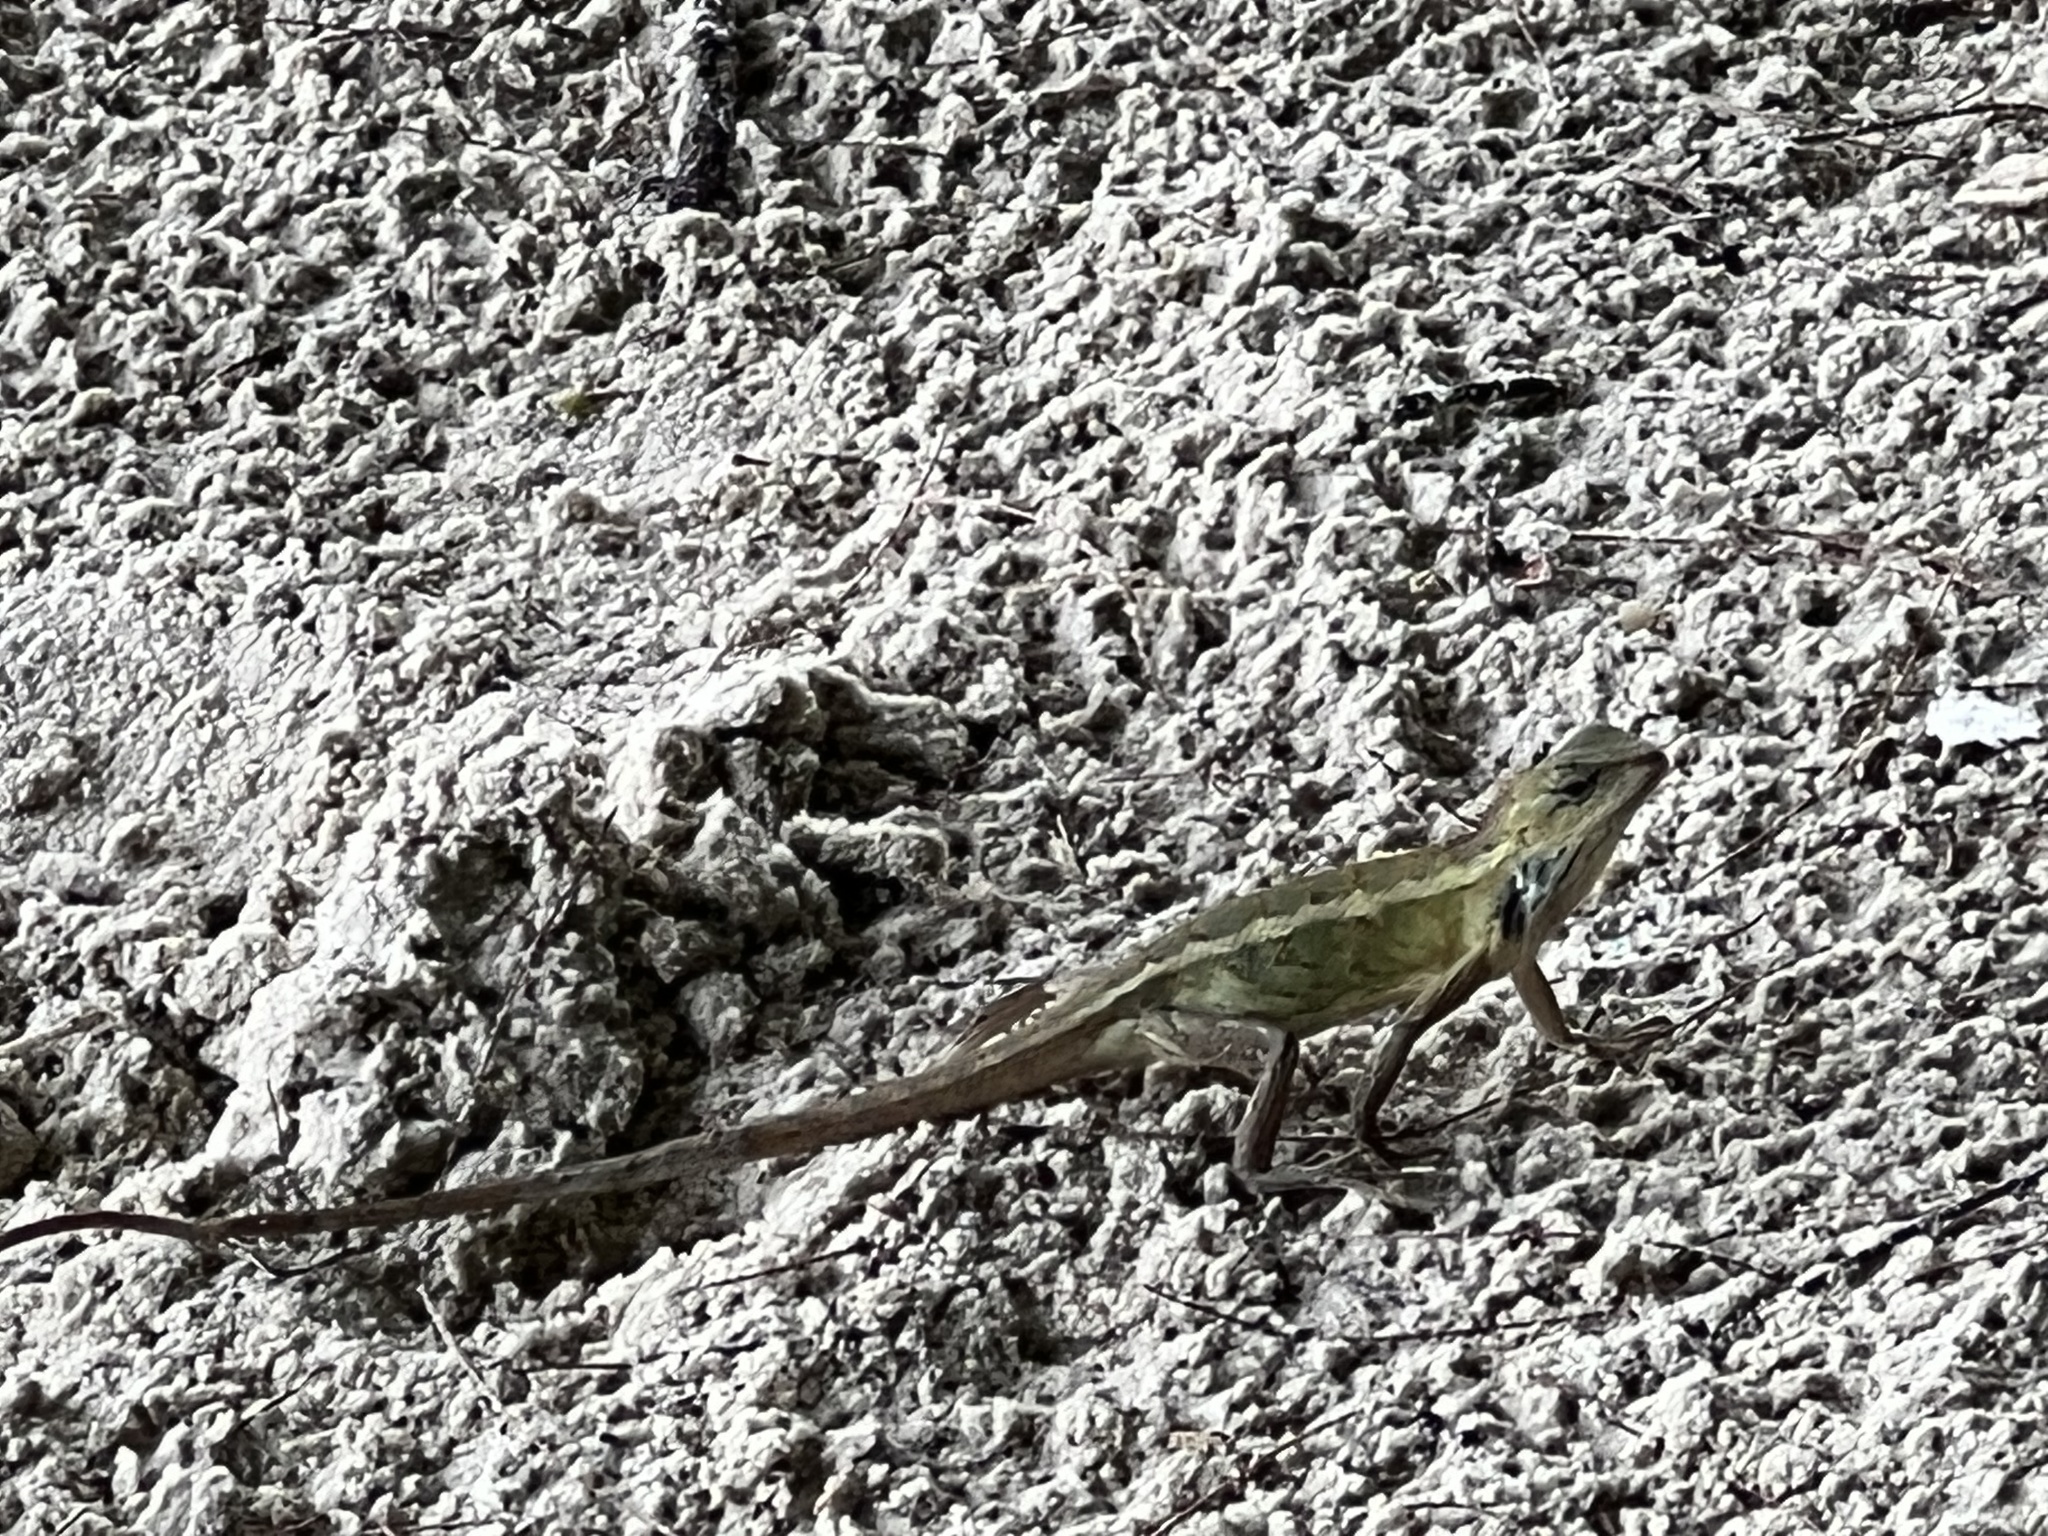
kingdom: Animalia
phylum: Chordata
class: Squamata
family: Agamidae
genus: Calotes
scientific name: Calotes versicolor
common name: Oriental garden lizard
